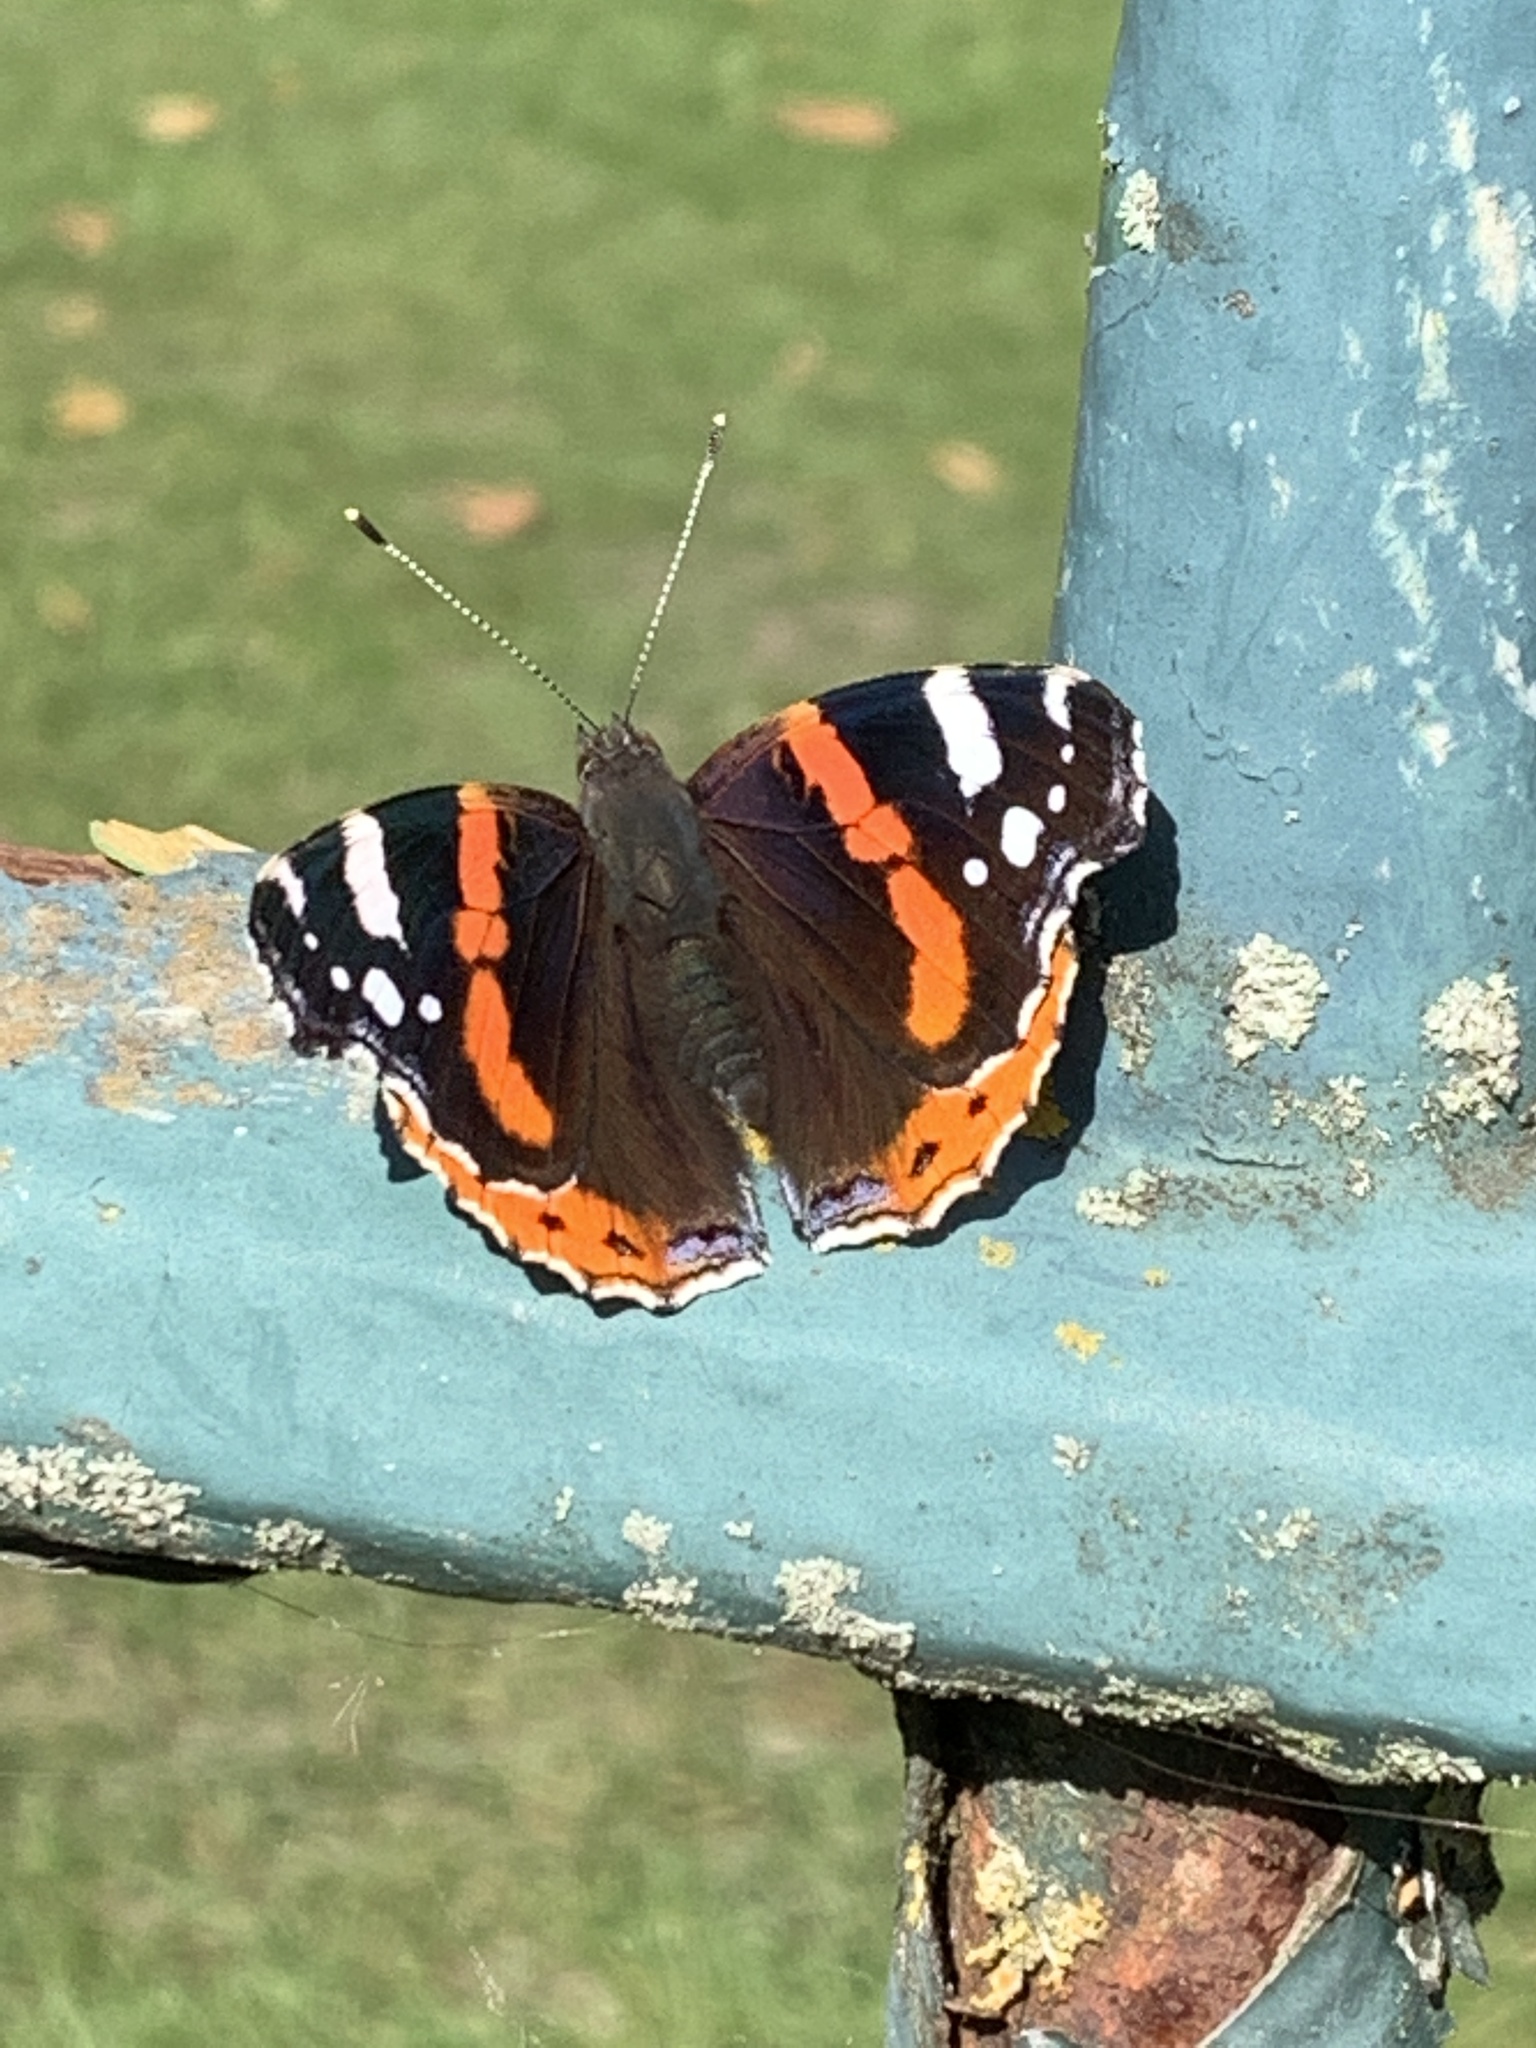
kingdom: Animalia
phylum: Arthropoda
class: Insecta
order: Lepidoptera
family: Nymphalidae
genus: Vanessa
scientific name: Vanessa atalanta
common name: Red admiral
